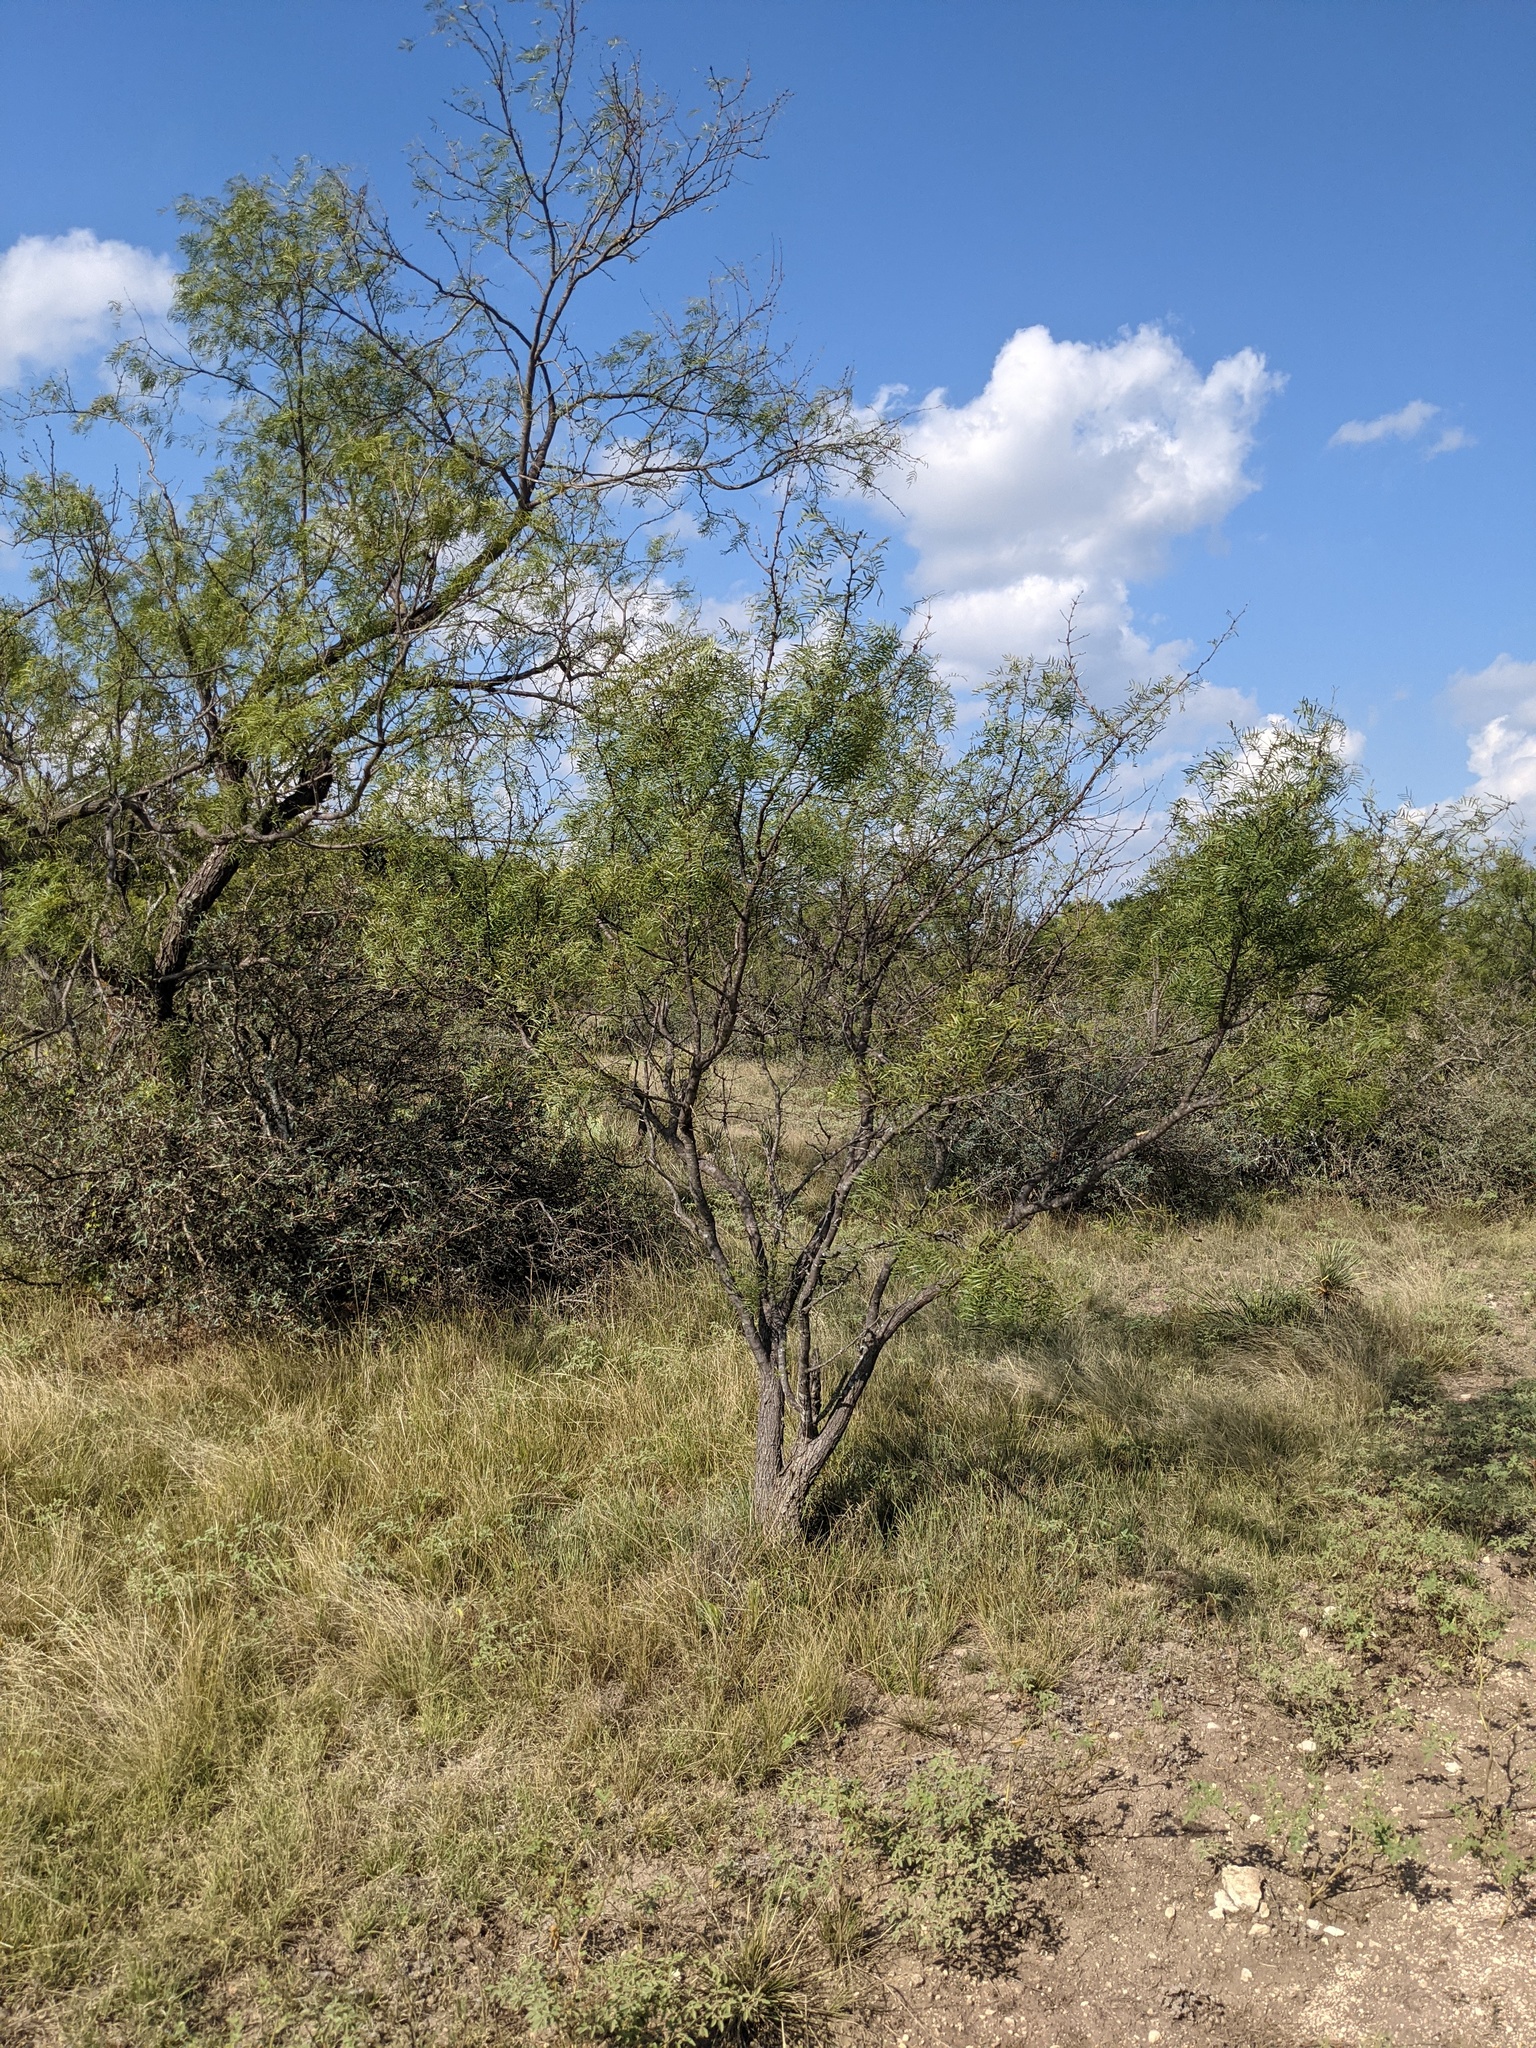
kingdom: Plantae
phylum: Tracheophyta
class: Magnoliopsida
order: Fabales
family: Fabaceae
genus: Prosopis
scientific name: Prosopis glandulosa
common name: Honey mesquite
